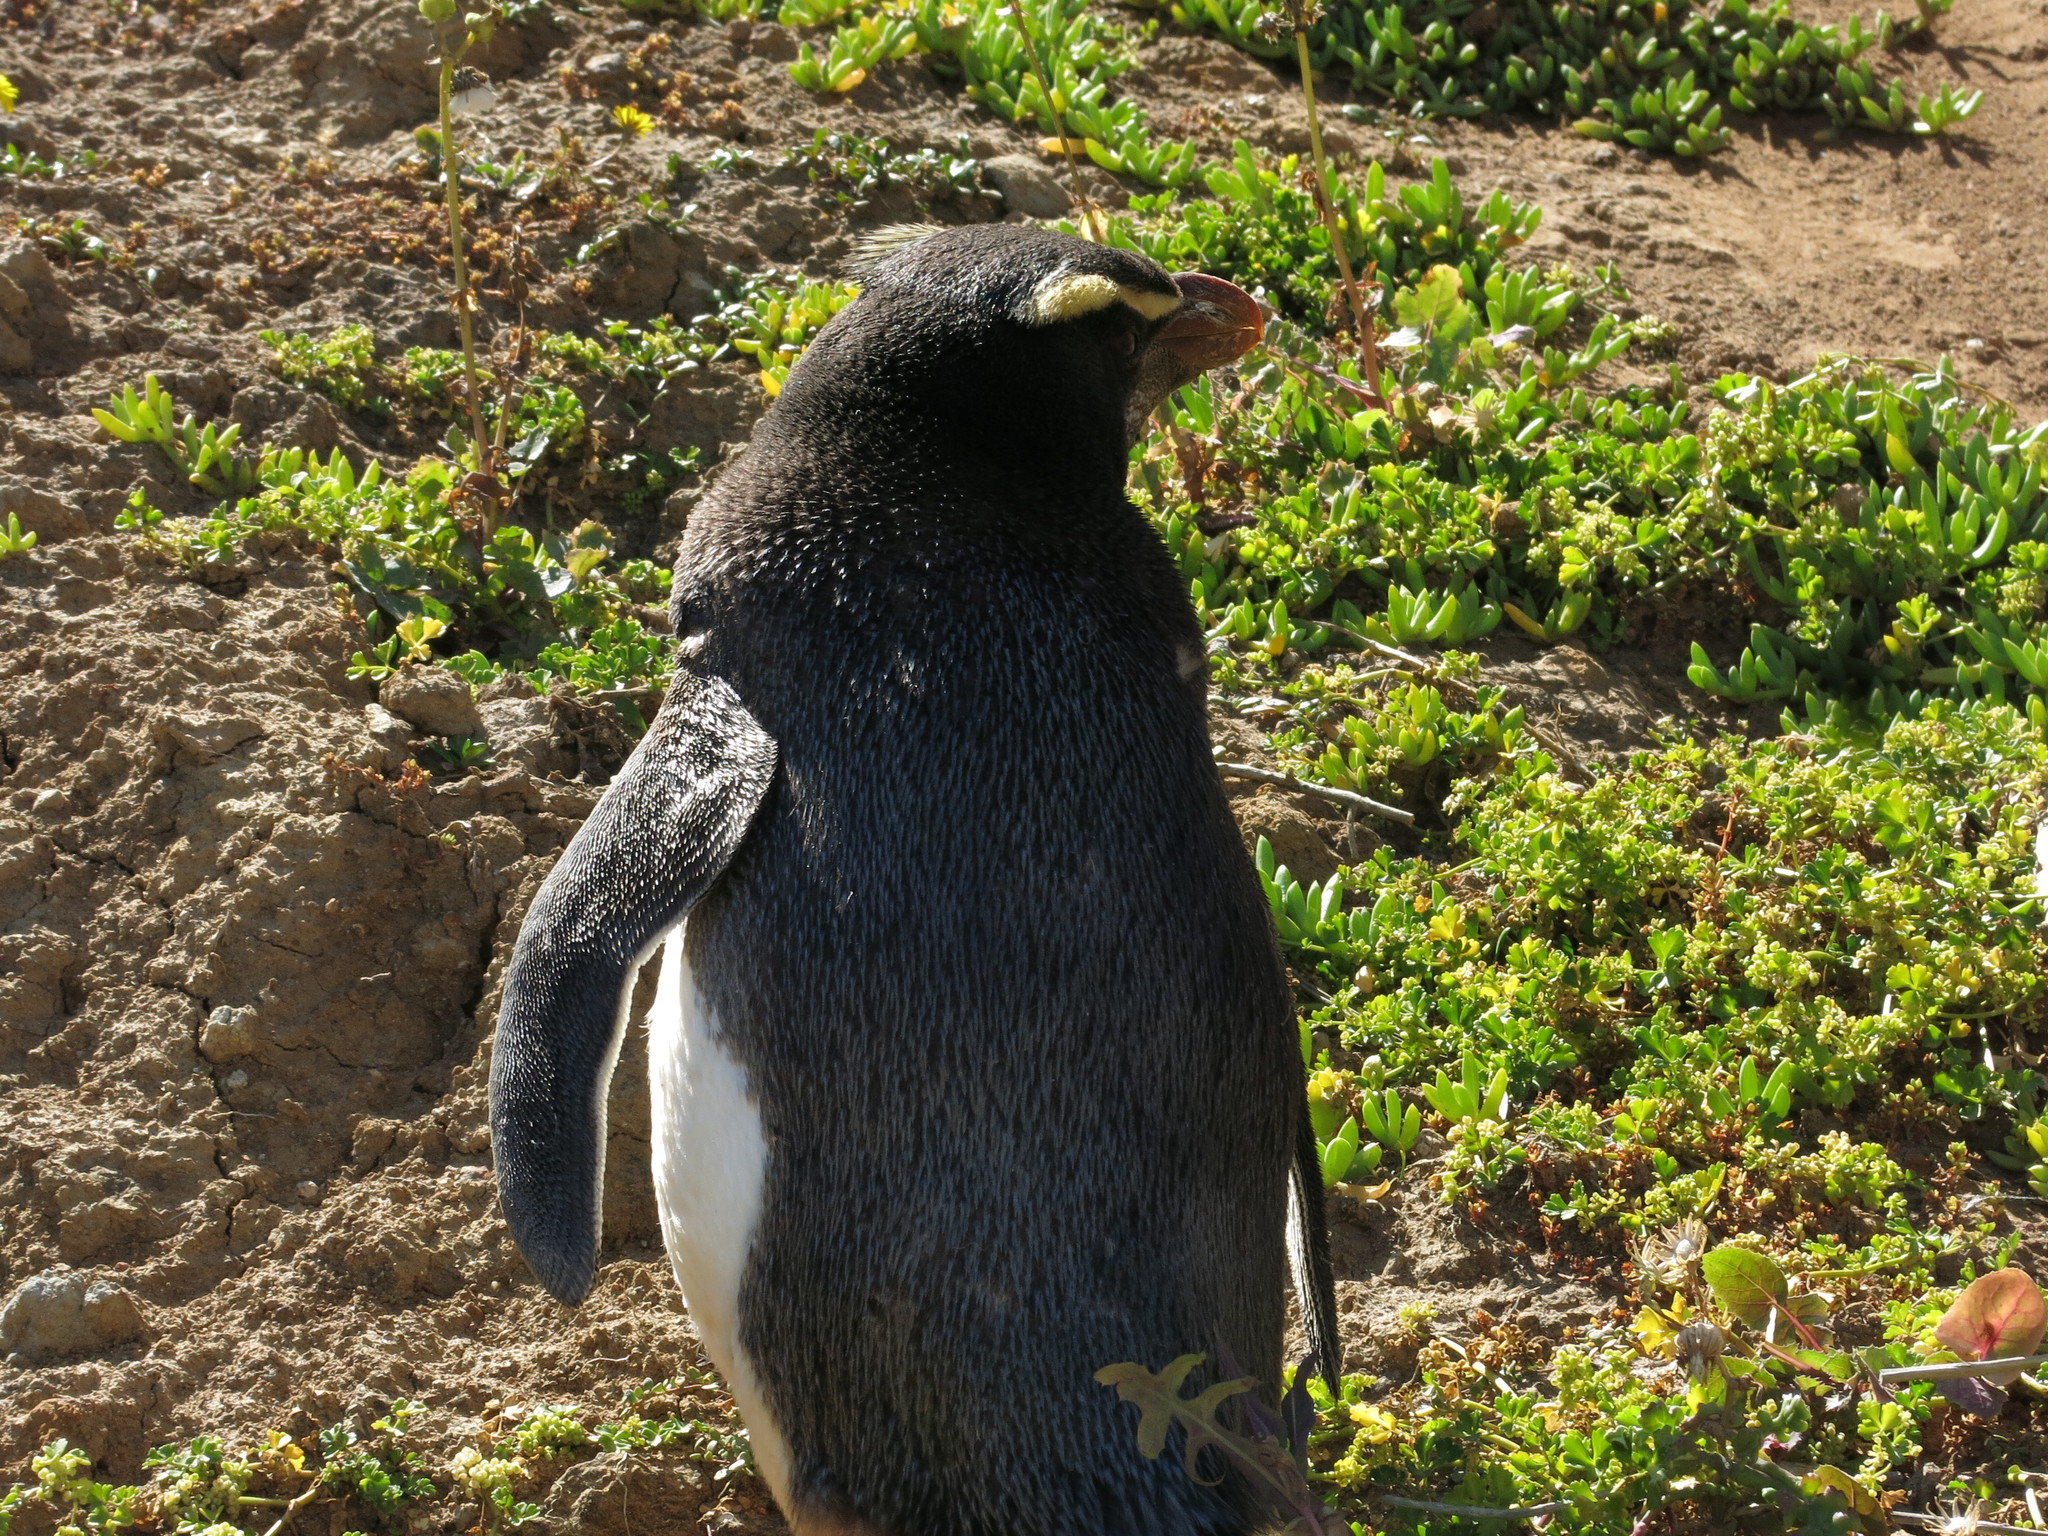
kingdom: Animalia
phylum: Chordata
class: Aves
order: Sphenisciformes
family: Spheniscidae
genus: Eudyptes
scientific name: Eudyptes pachyrhynchus
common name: Fiordland penguin
